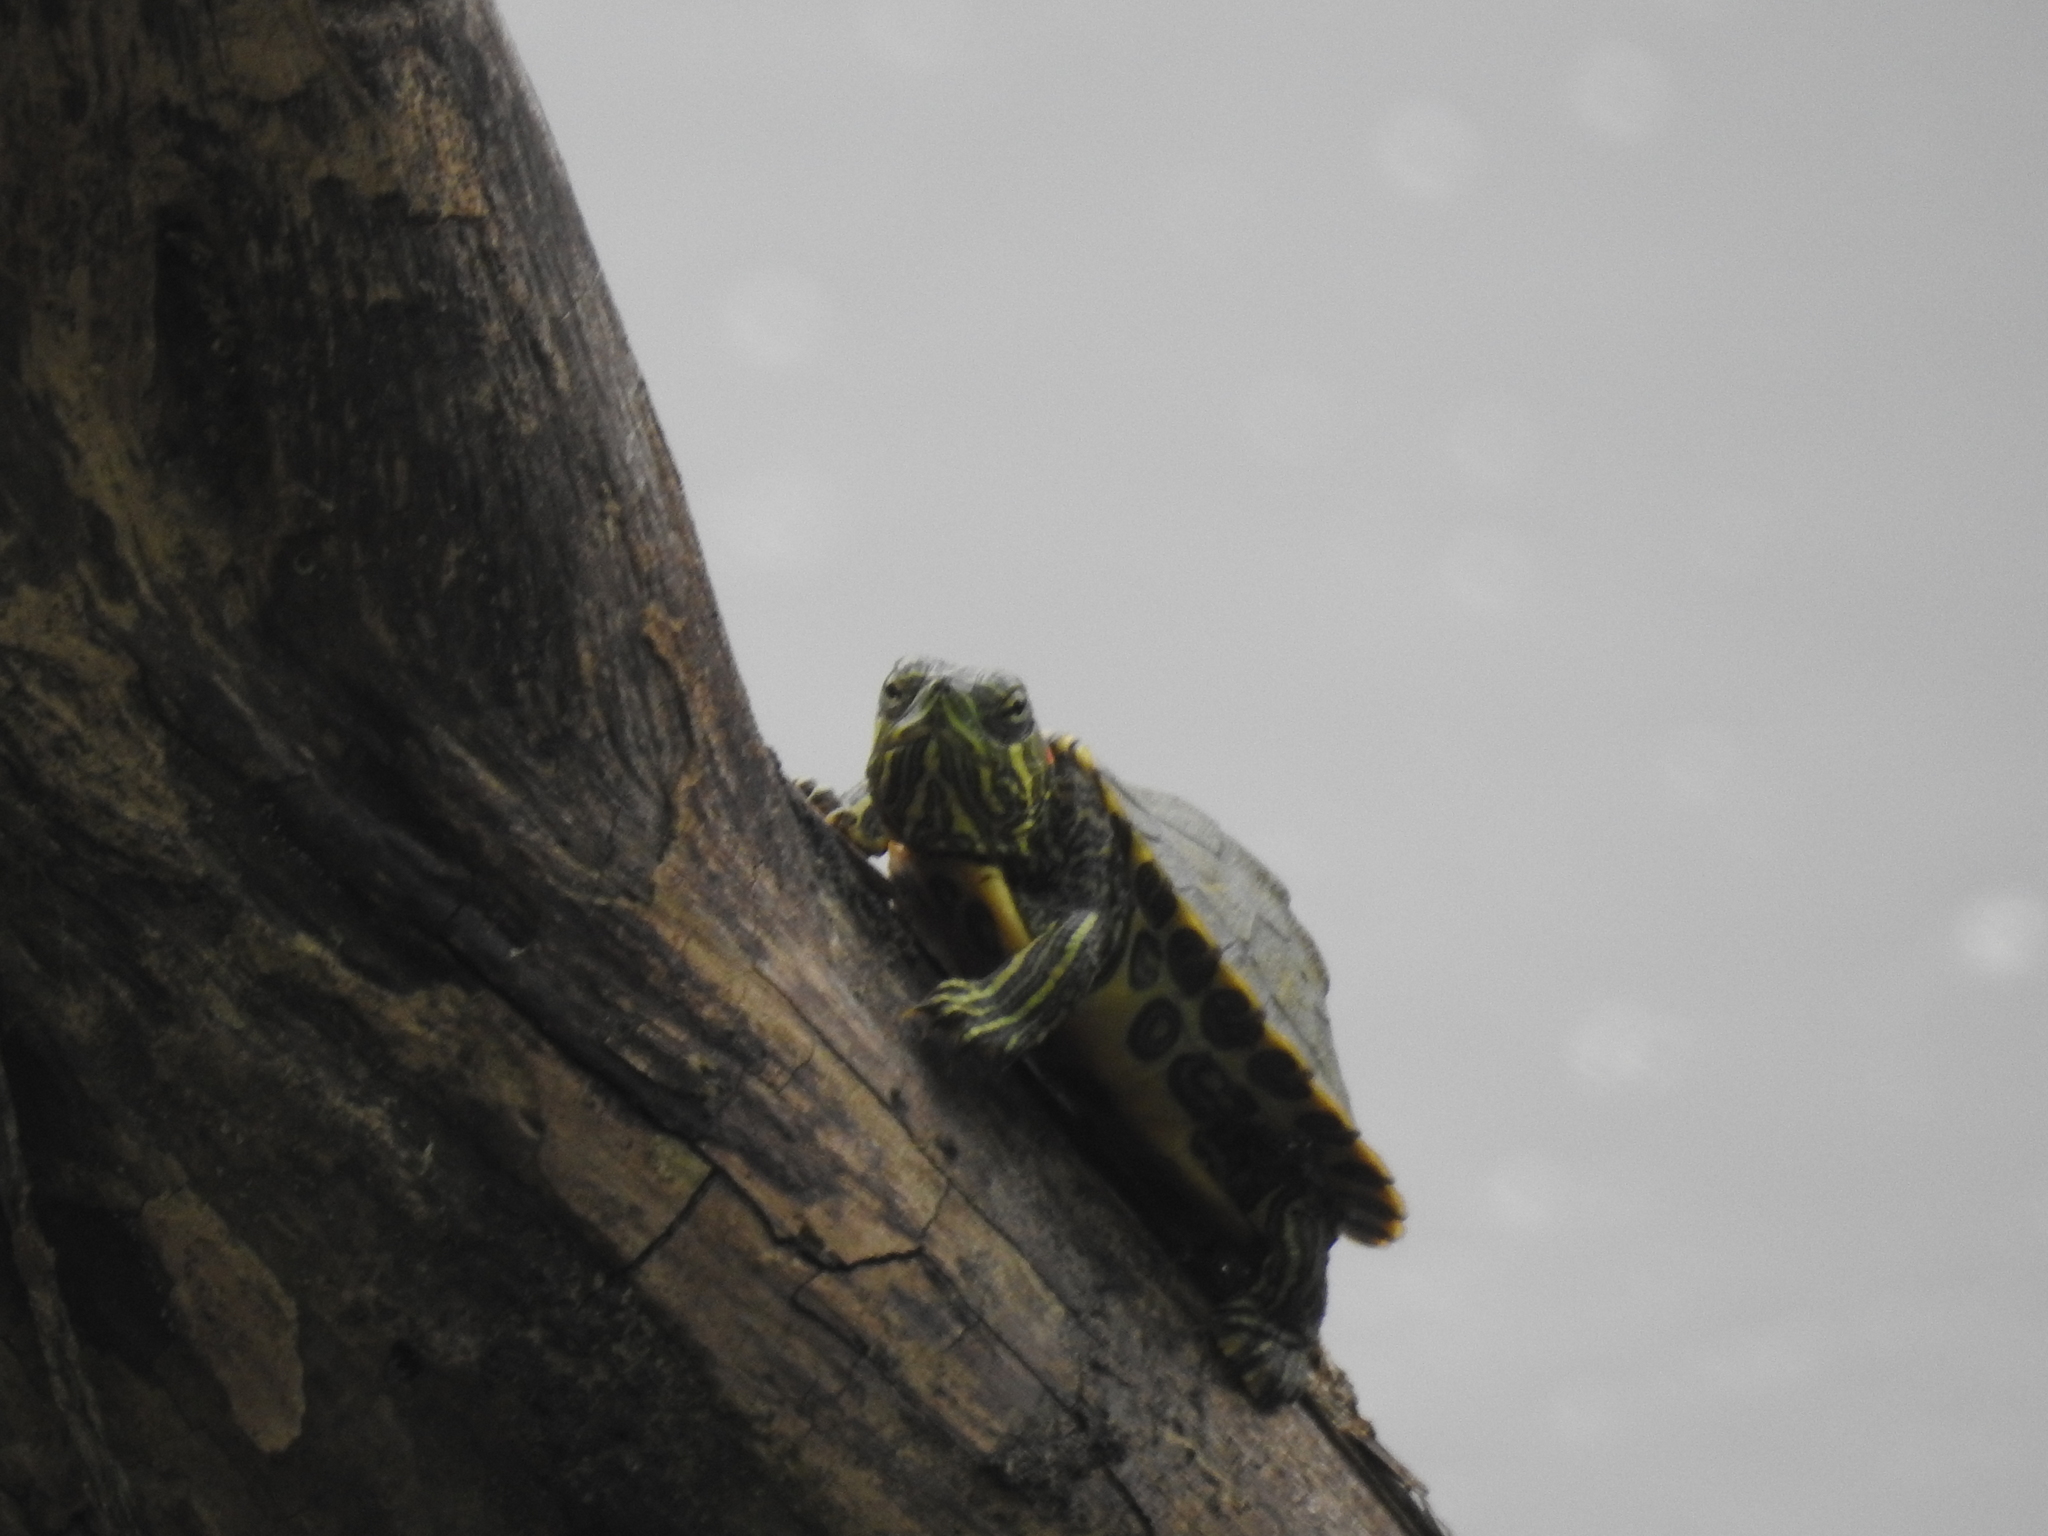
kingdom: Animalia
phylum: Chordata
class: Testudines
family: Emydidae
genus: Trachemys
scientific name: Trachemys scripta
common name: Slider
